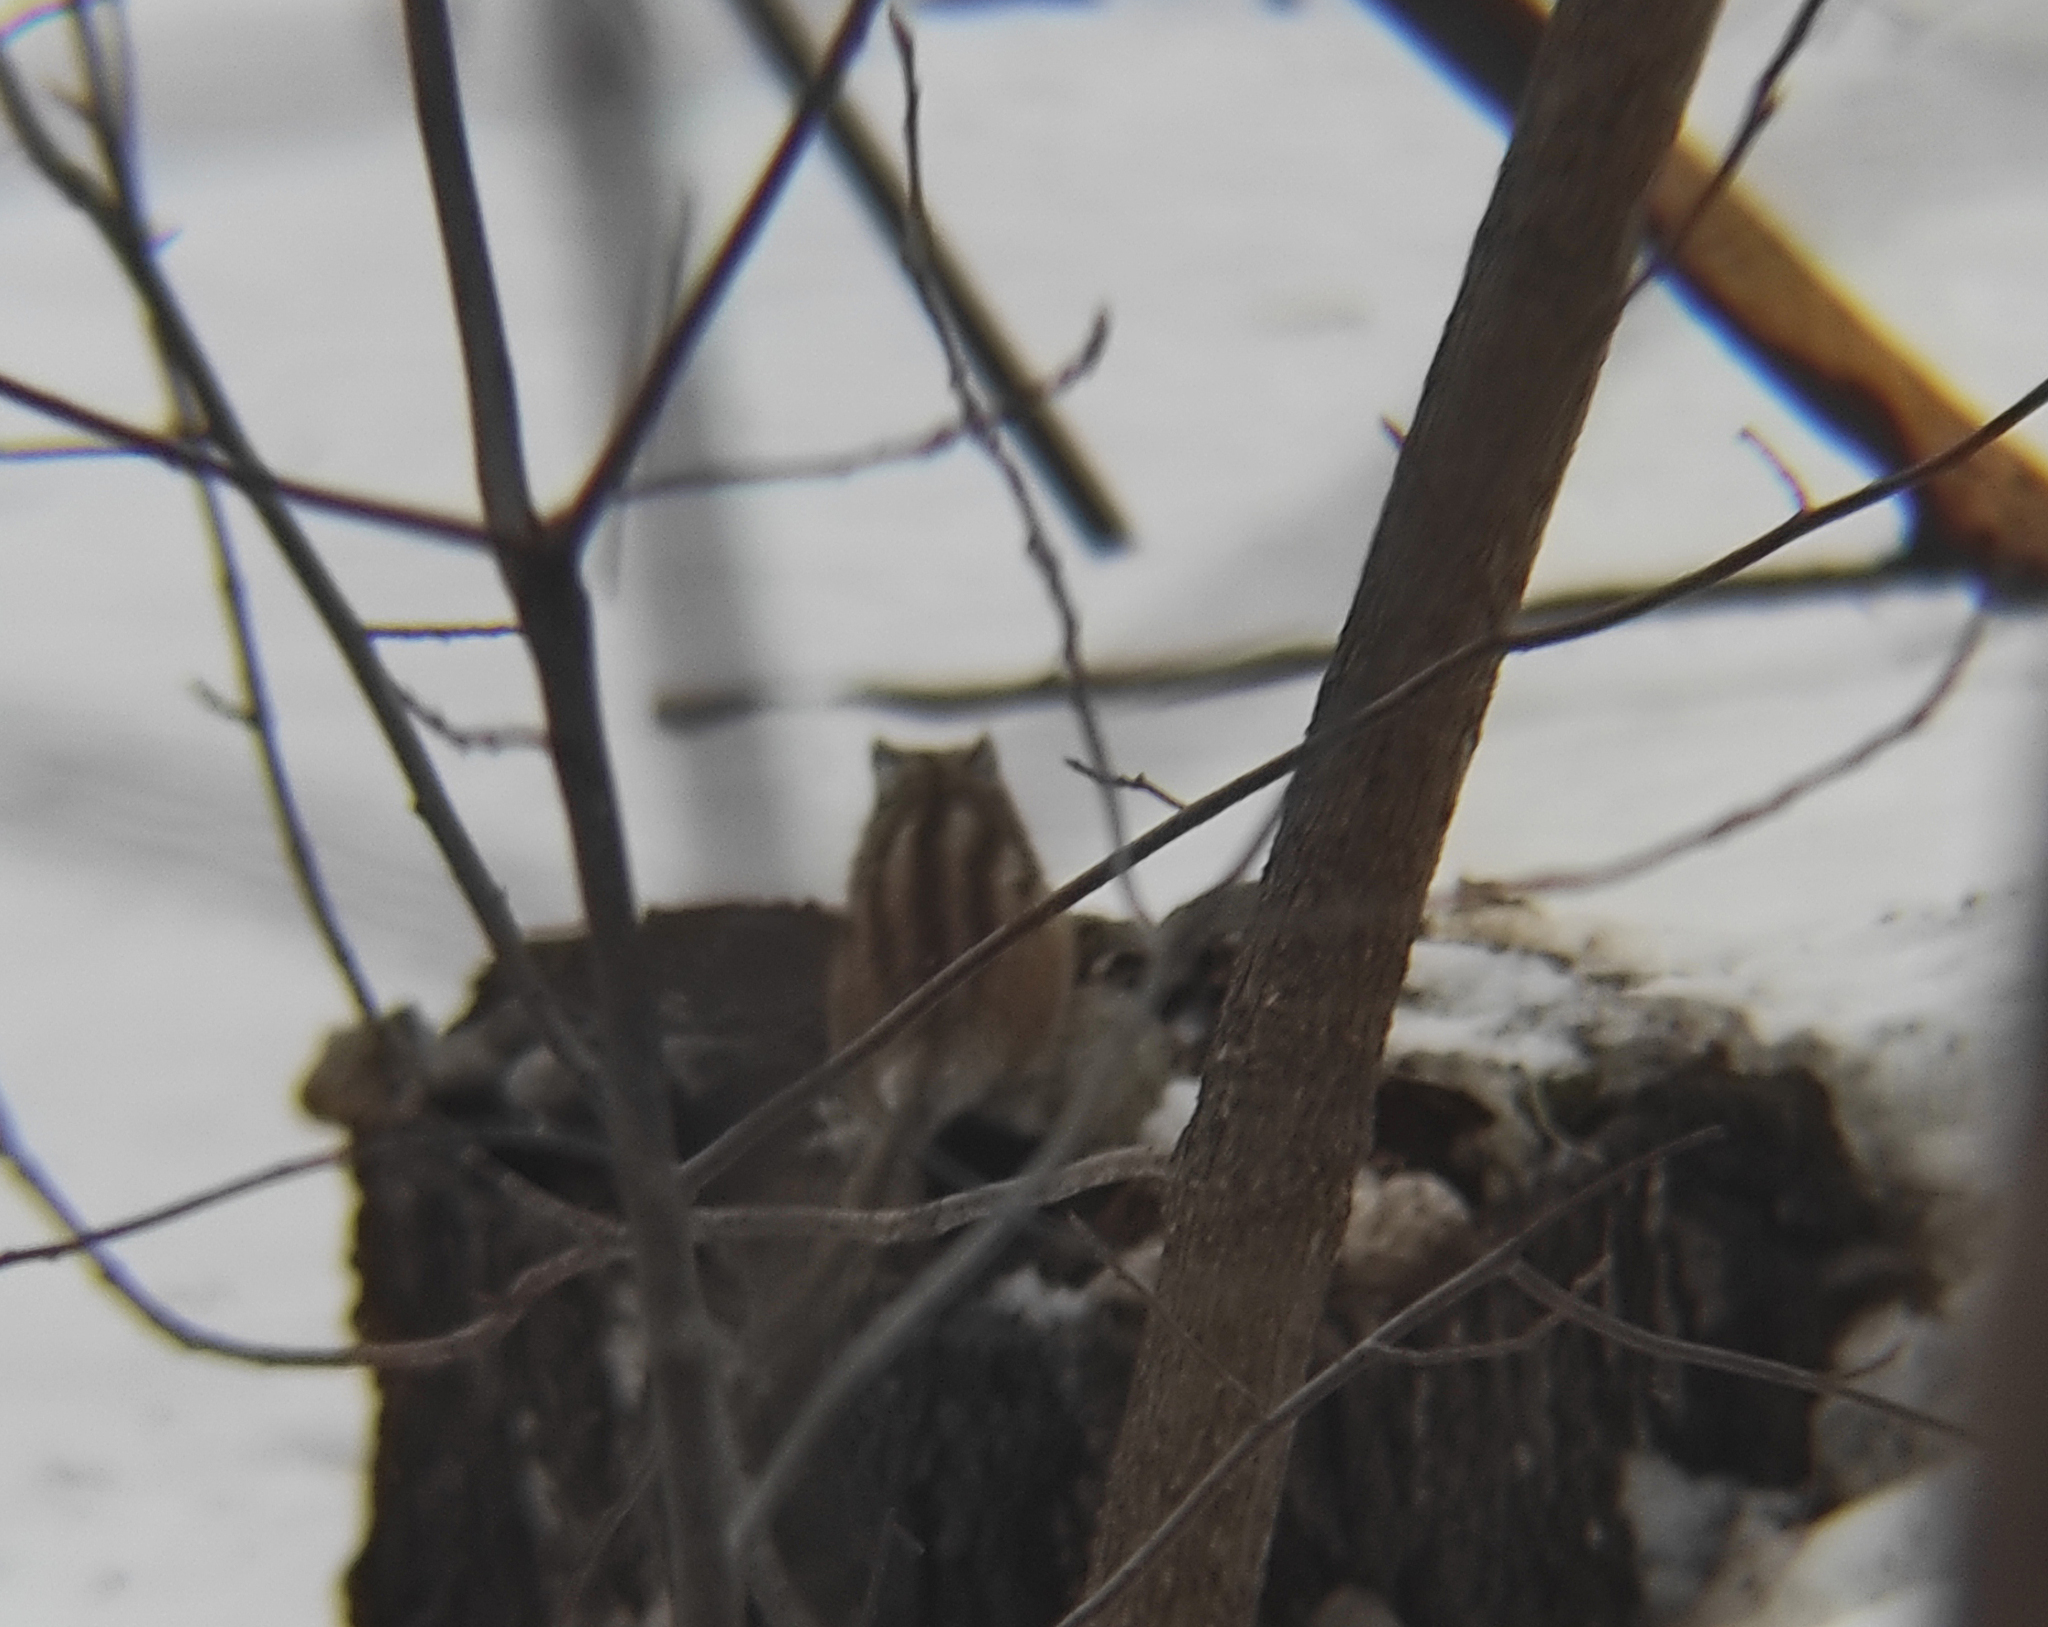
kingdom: Animalia
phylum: Chordata
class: Mammalia
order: Rodentia
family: Sciuridae
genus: Tamias
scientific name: Tamias sibiricus
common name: Siberian chipmunk
